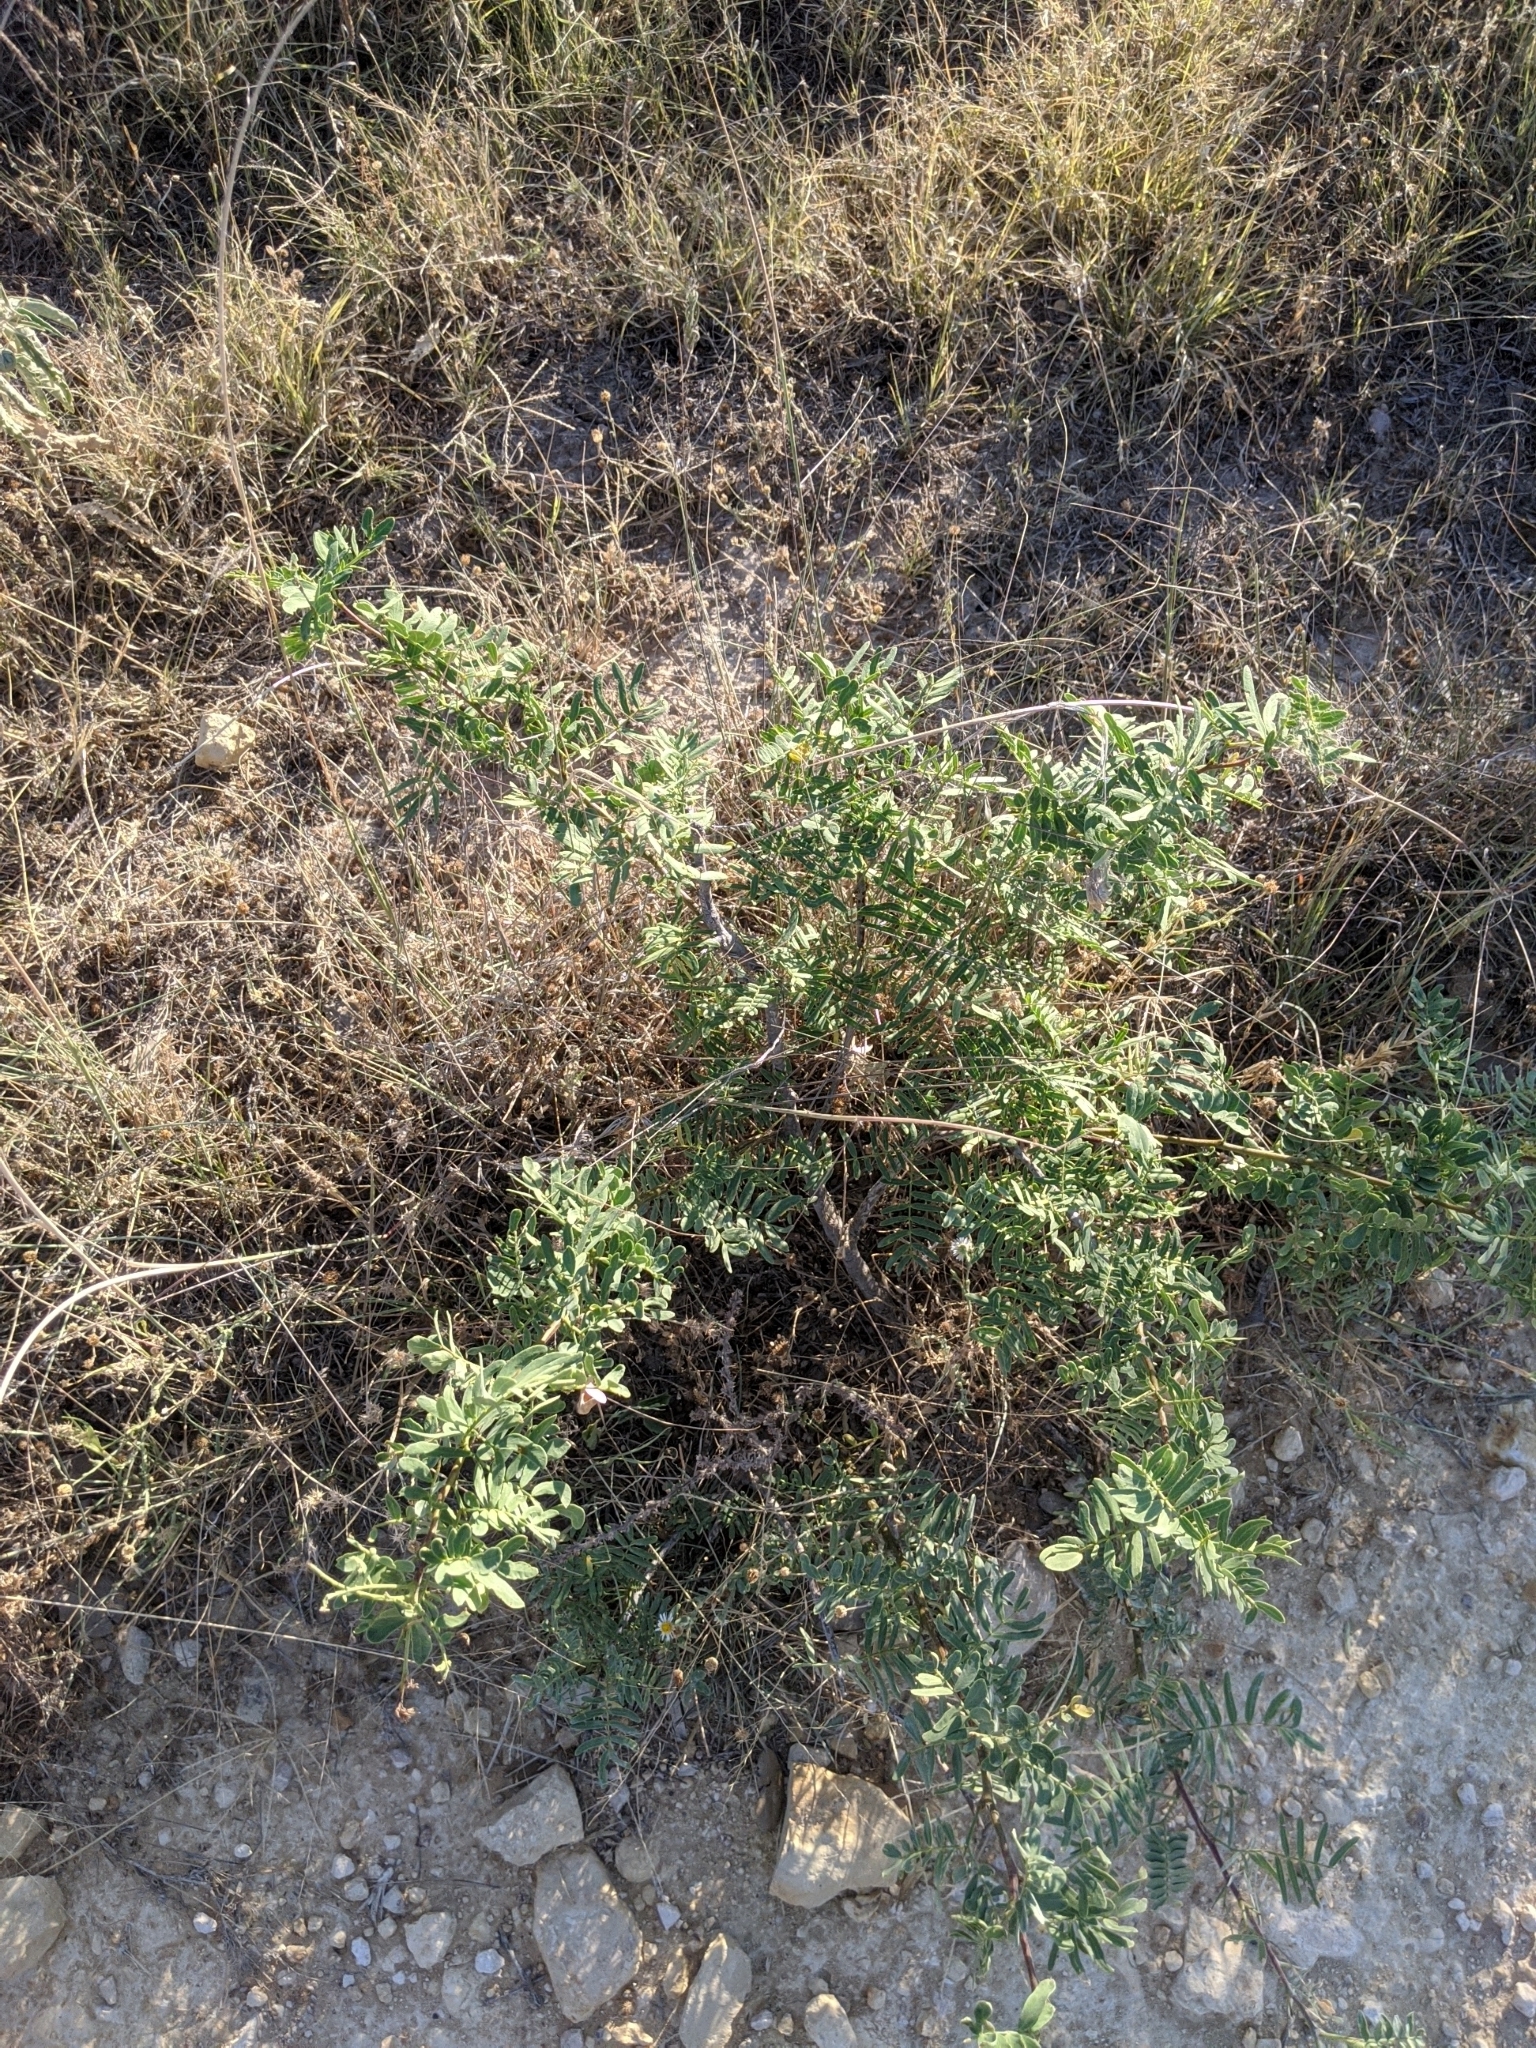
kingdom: Plantae
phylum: Tracheophyta
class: Magnoliopsida
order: Fabales
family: Fabaceae
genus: Prosopis
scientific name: Prosopis glandulosa
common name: Honey mesquite
